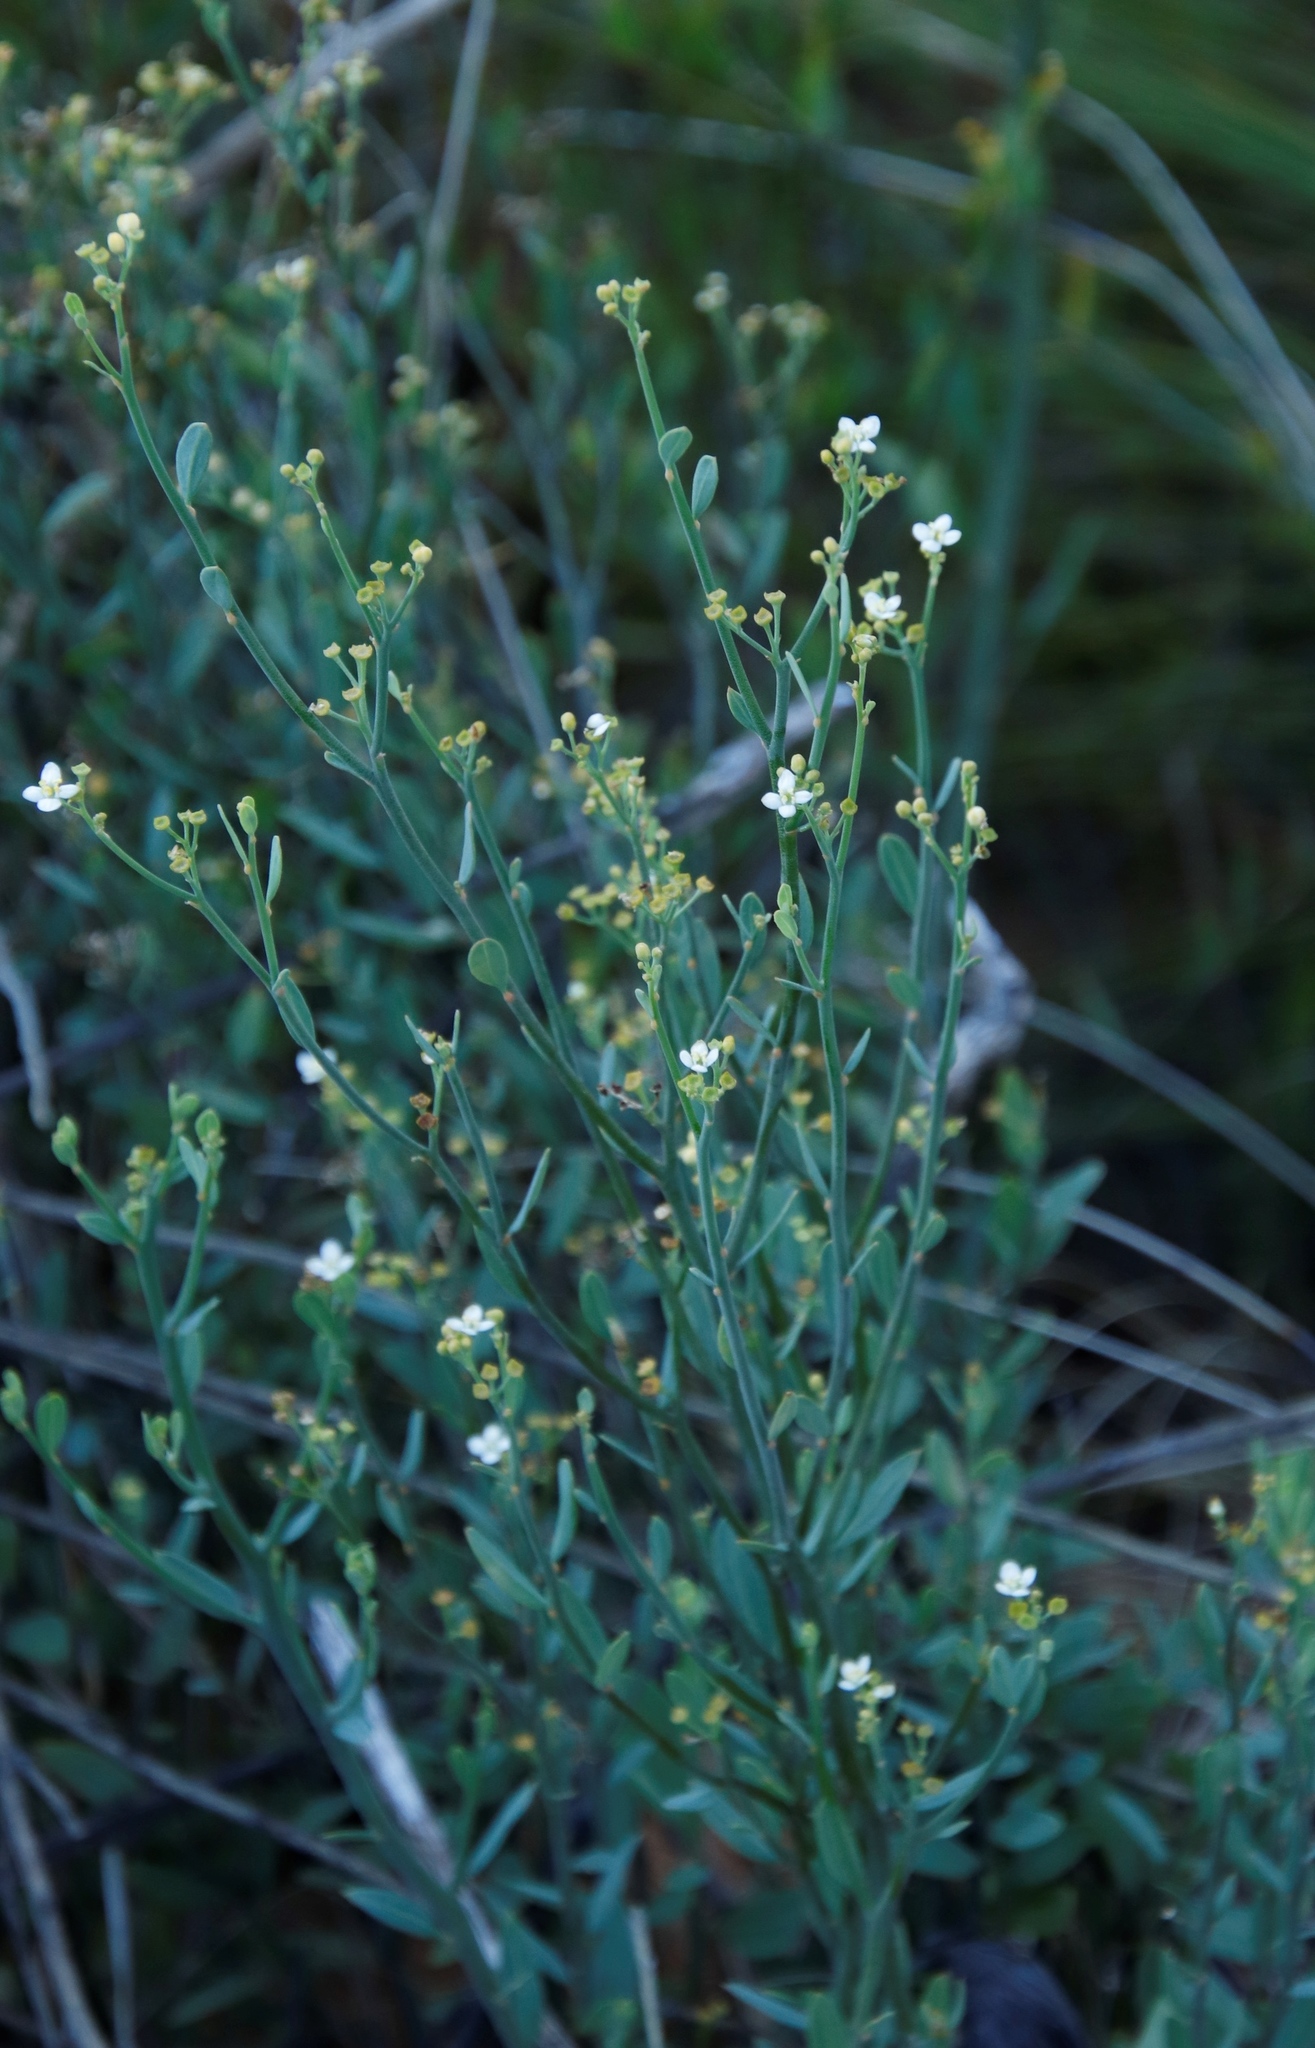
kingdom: Plantae
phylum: Tracheophyta
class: Magnoliopsida
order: Solanales
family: Montiniaceae
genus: Montinia
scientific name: Montinia caryophyllacea
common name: Wild clove-bush
